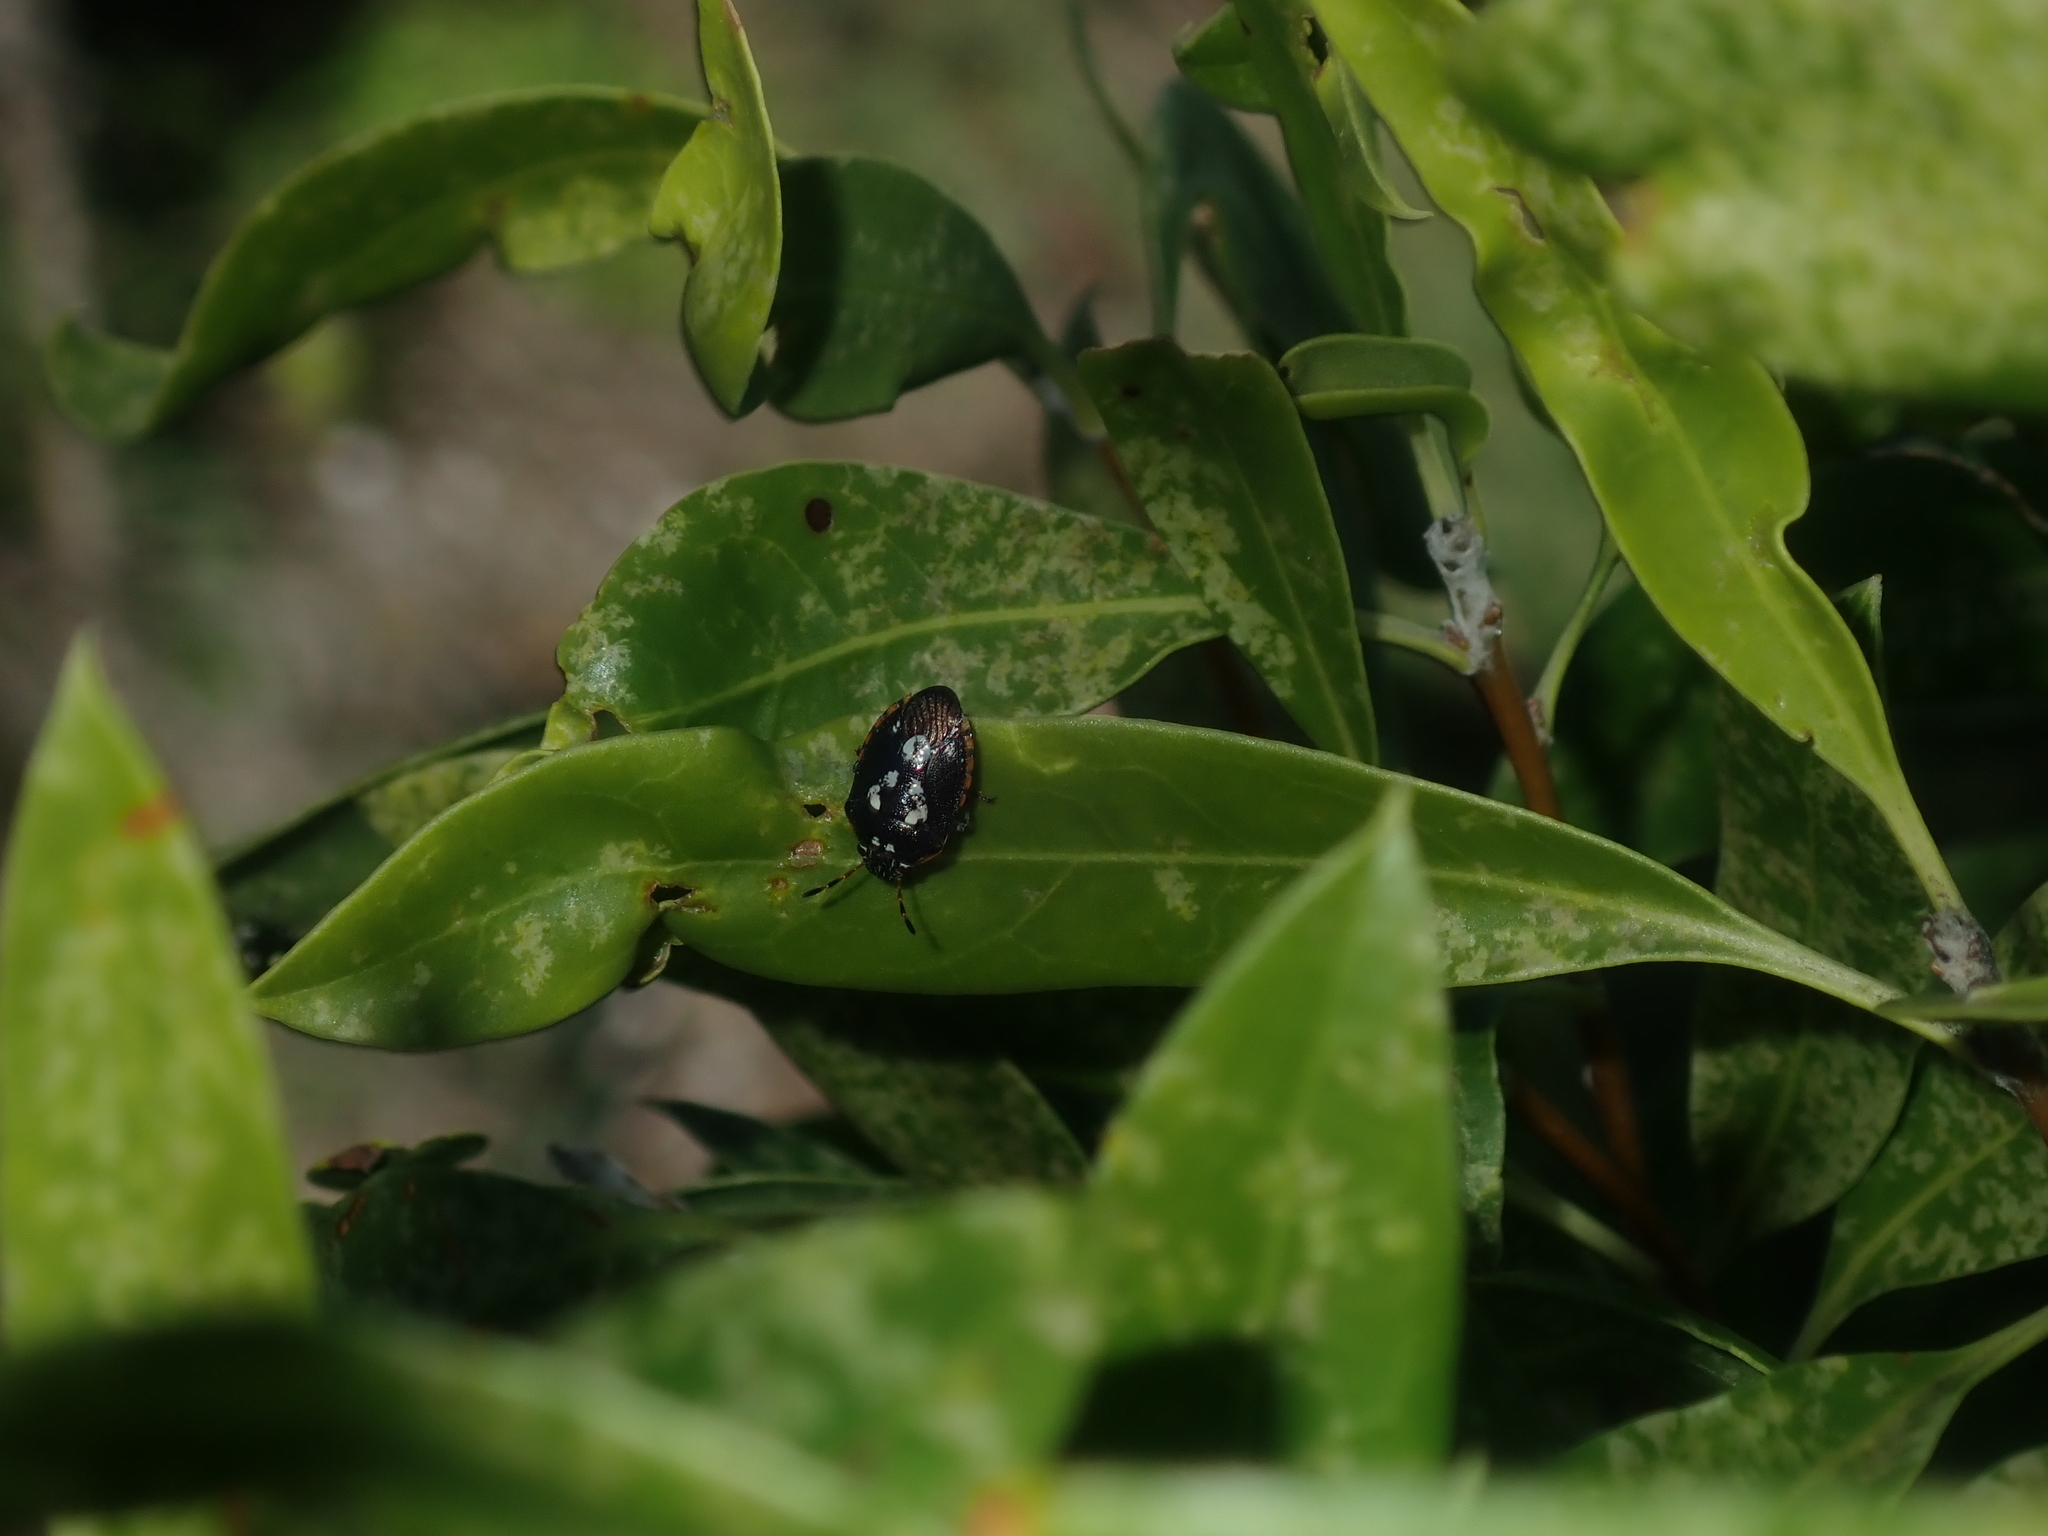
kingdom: Animalia
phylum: Arthropoda
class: Insecta
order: Hemiptera
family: Pentatomidae
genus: Pseudapines
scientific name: Pseudapines
